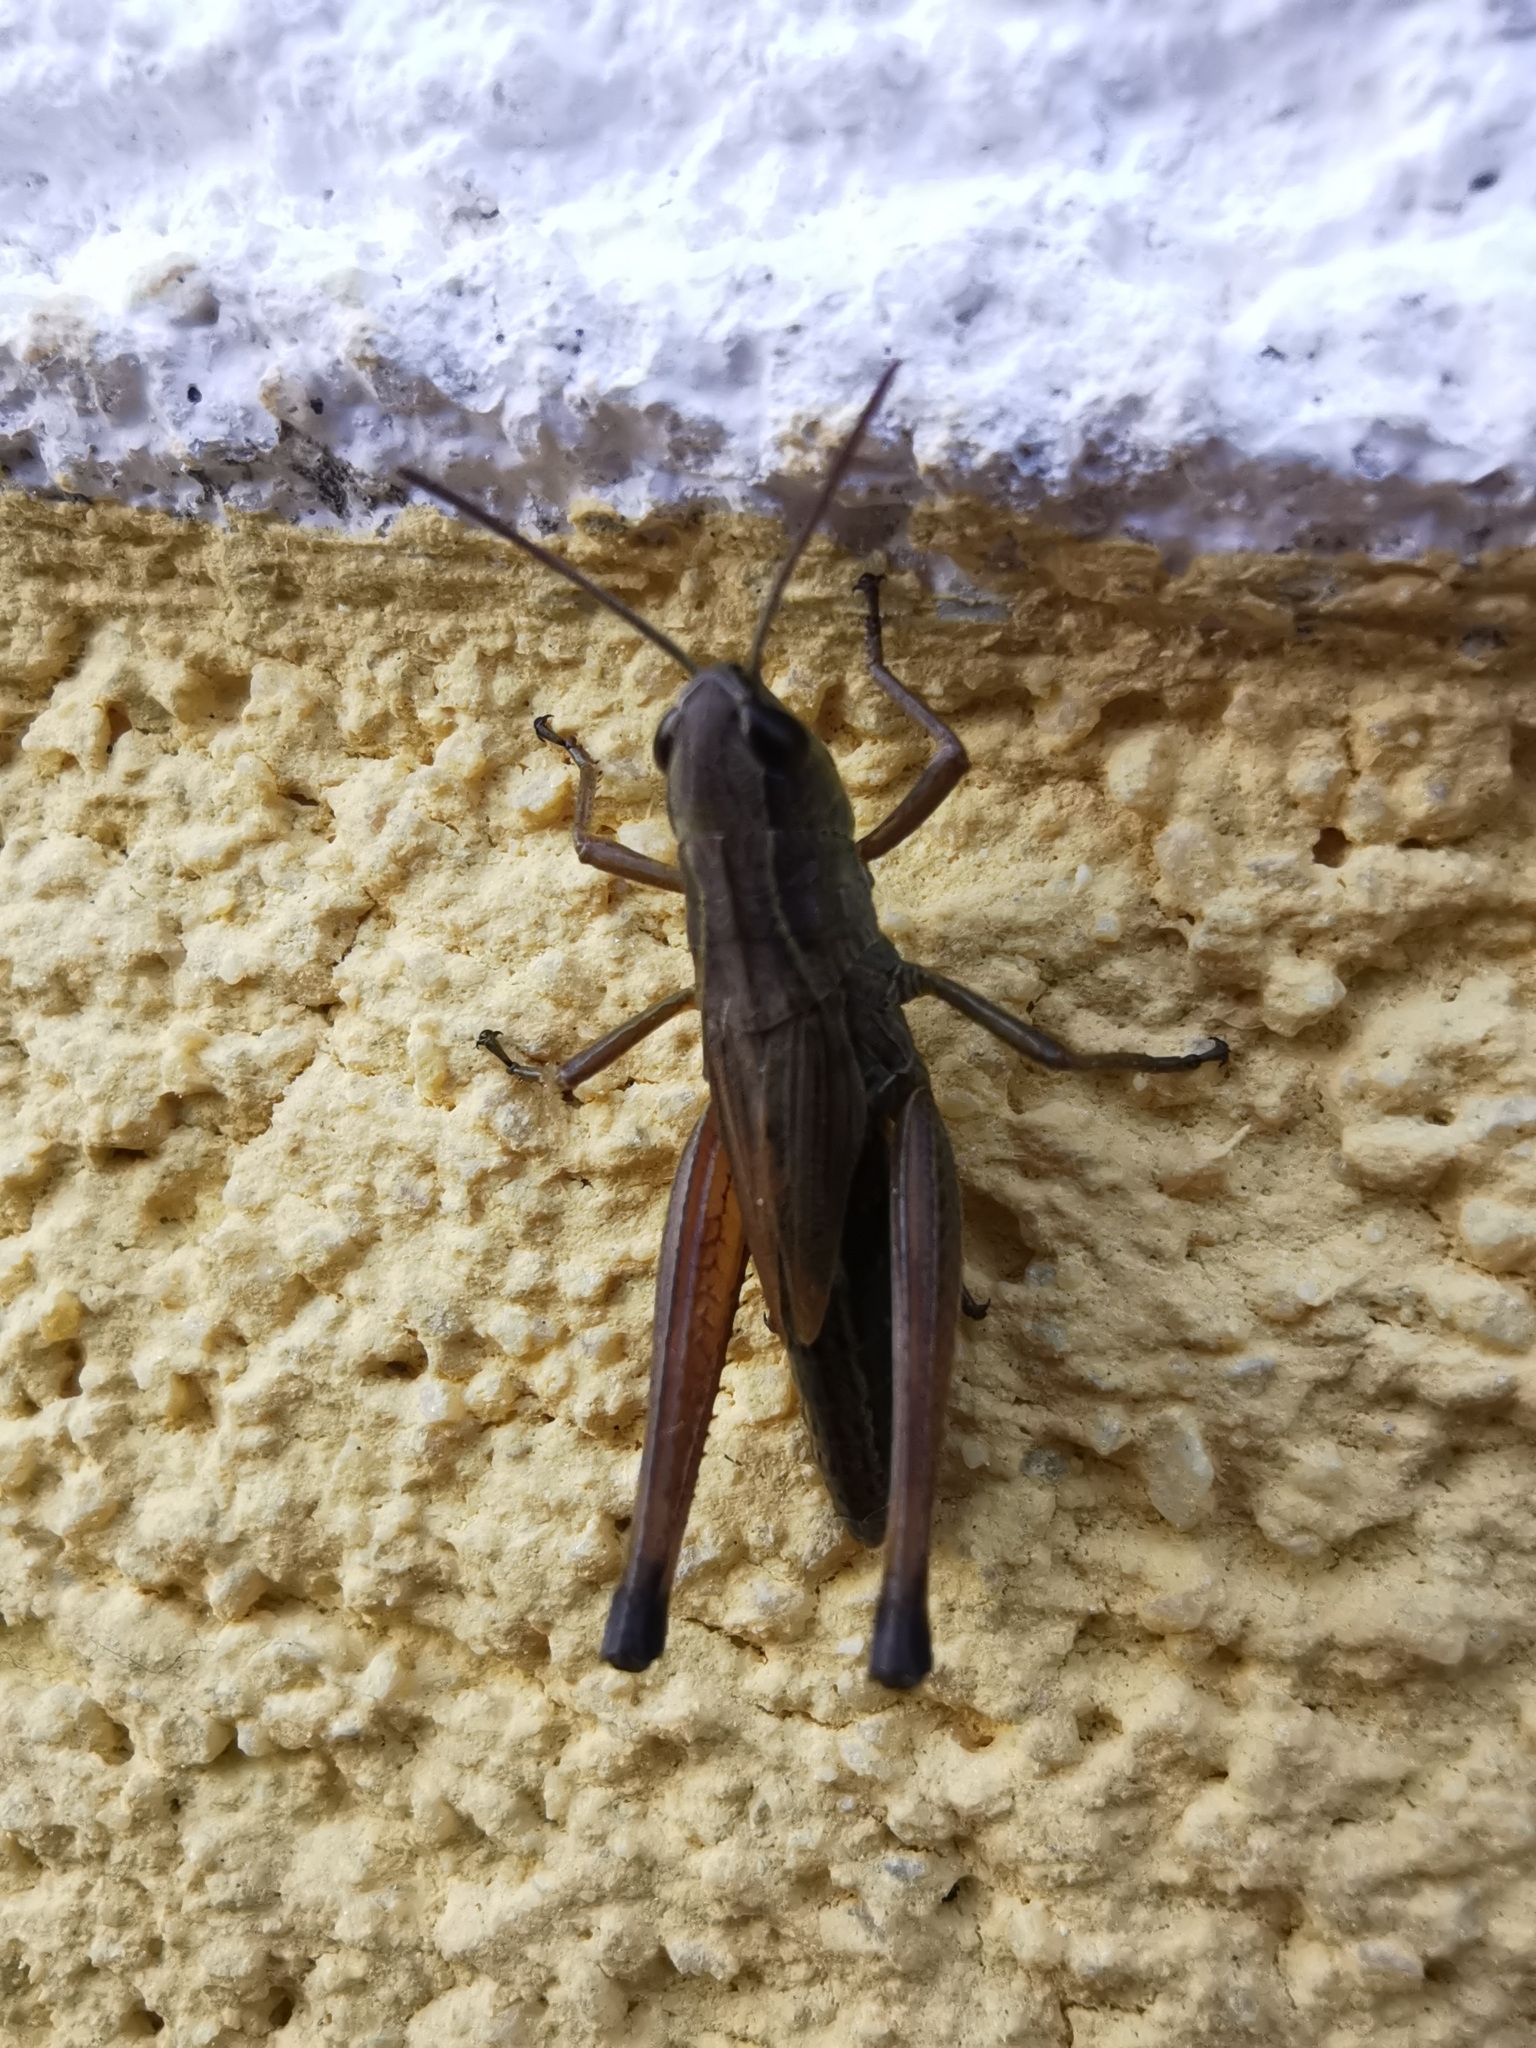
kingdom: Animalia
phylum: Arthropoda
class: Insecta
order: Orthoptera
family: Acrididae
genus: Pseudochorthippus
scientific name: Pseudochorthippus parallelus
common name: Meadow grasshopper
